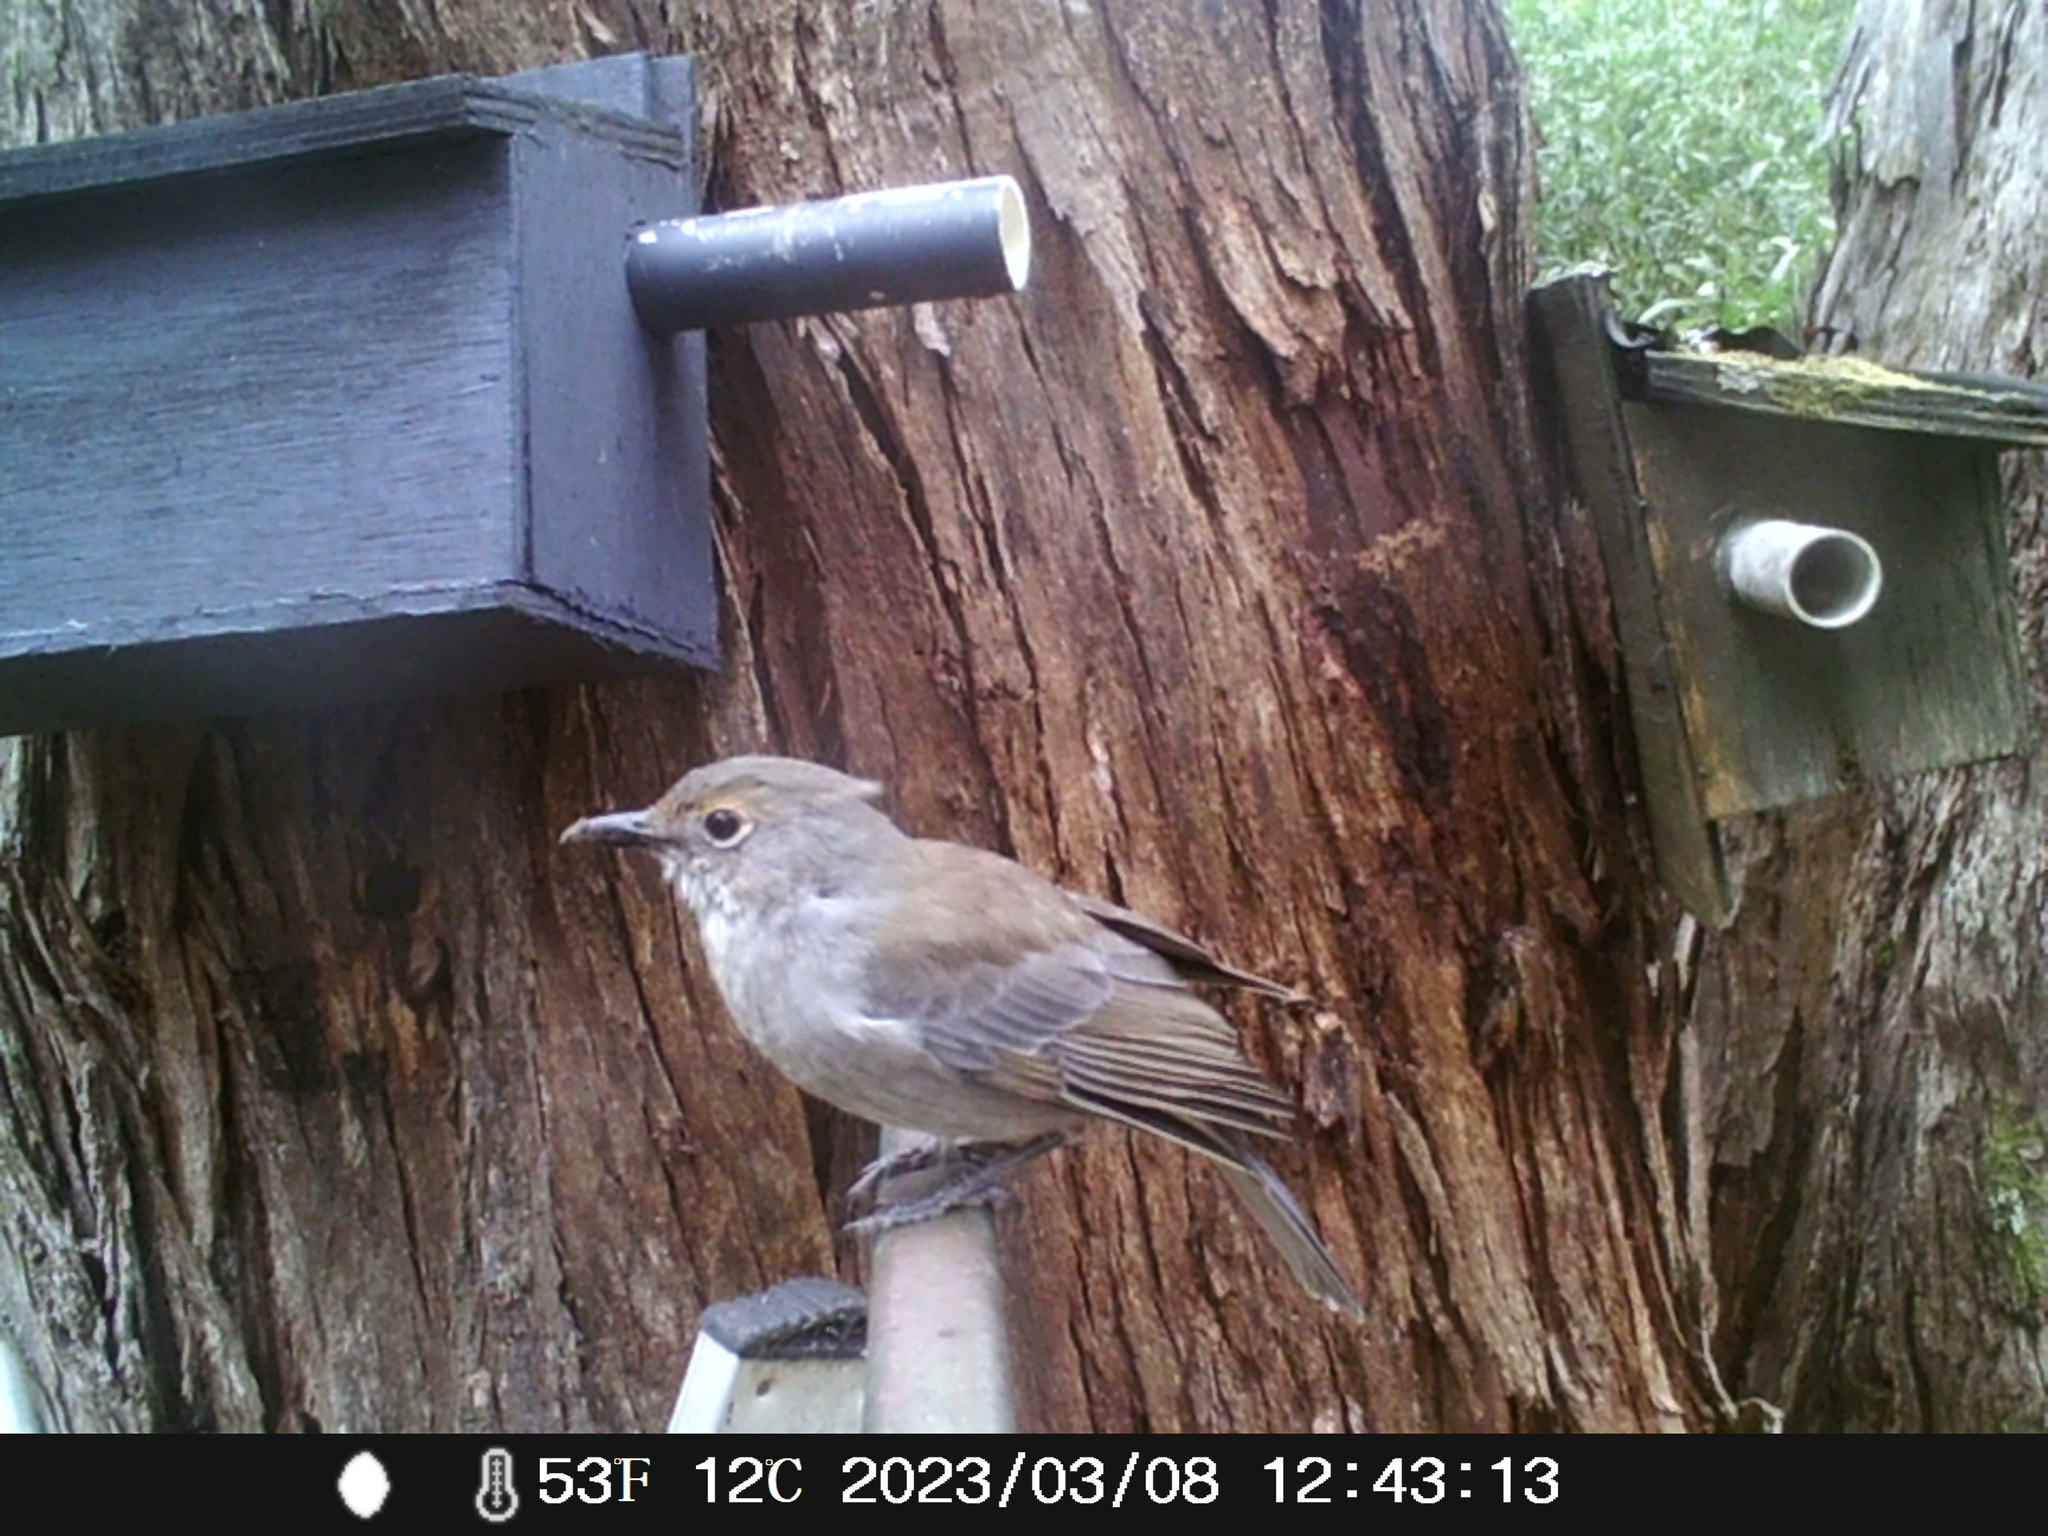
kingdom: Animalia
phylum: Chordata
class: Aves
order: Passeriformes
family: Pachycephalidae
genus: Colluricincla
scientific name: Colluricincla harmonica
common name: Grey shrikethrush
